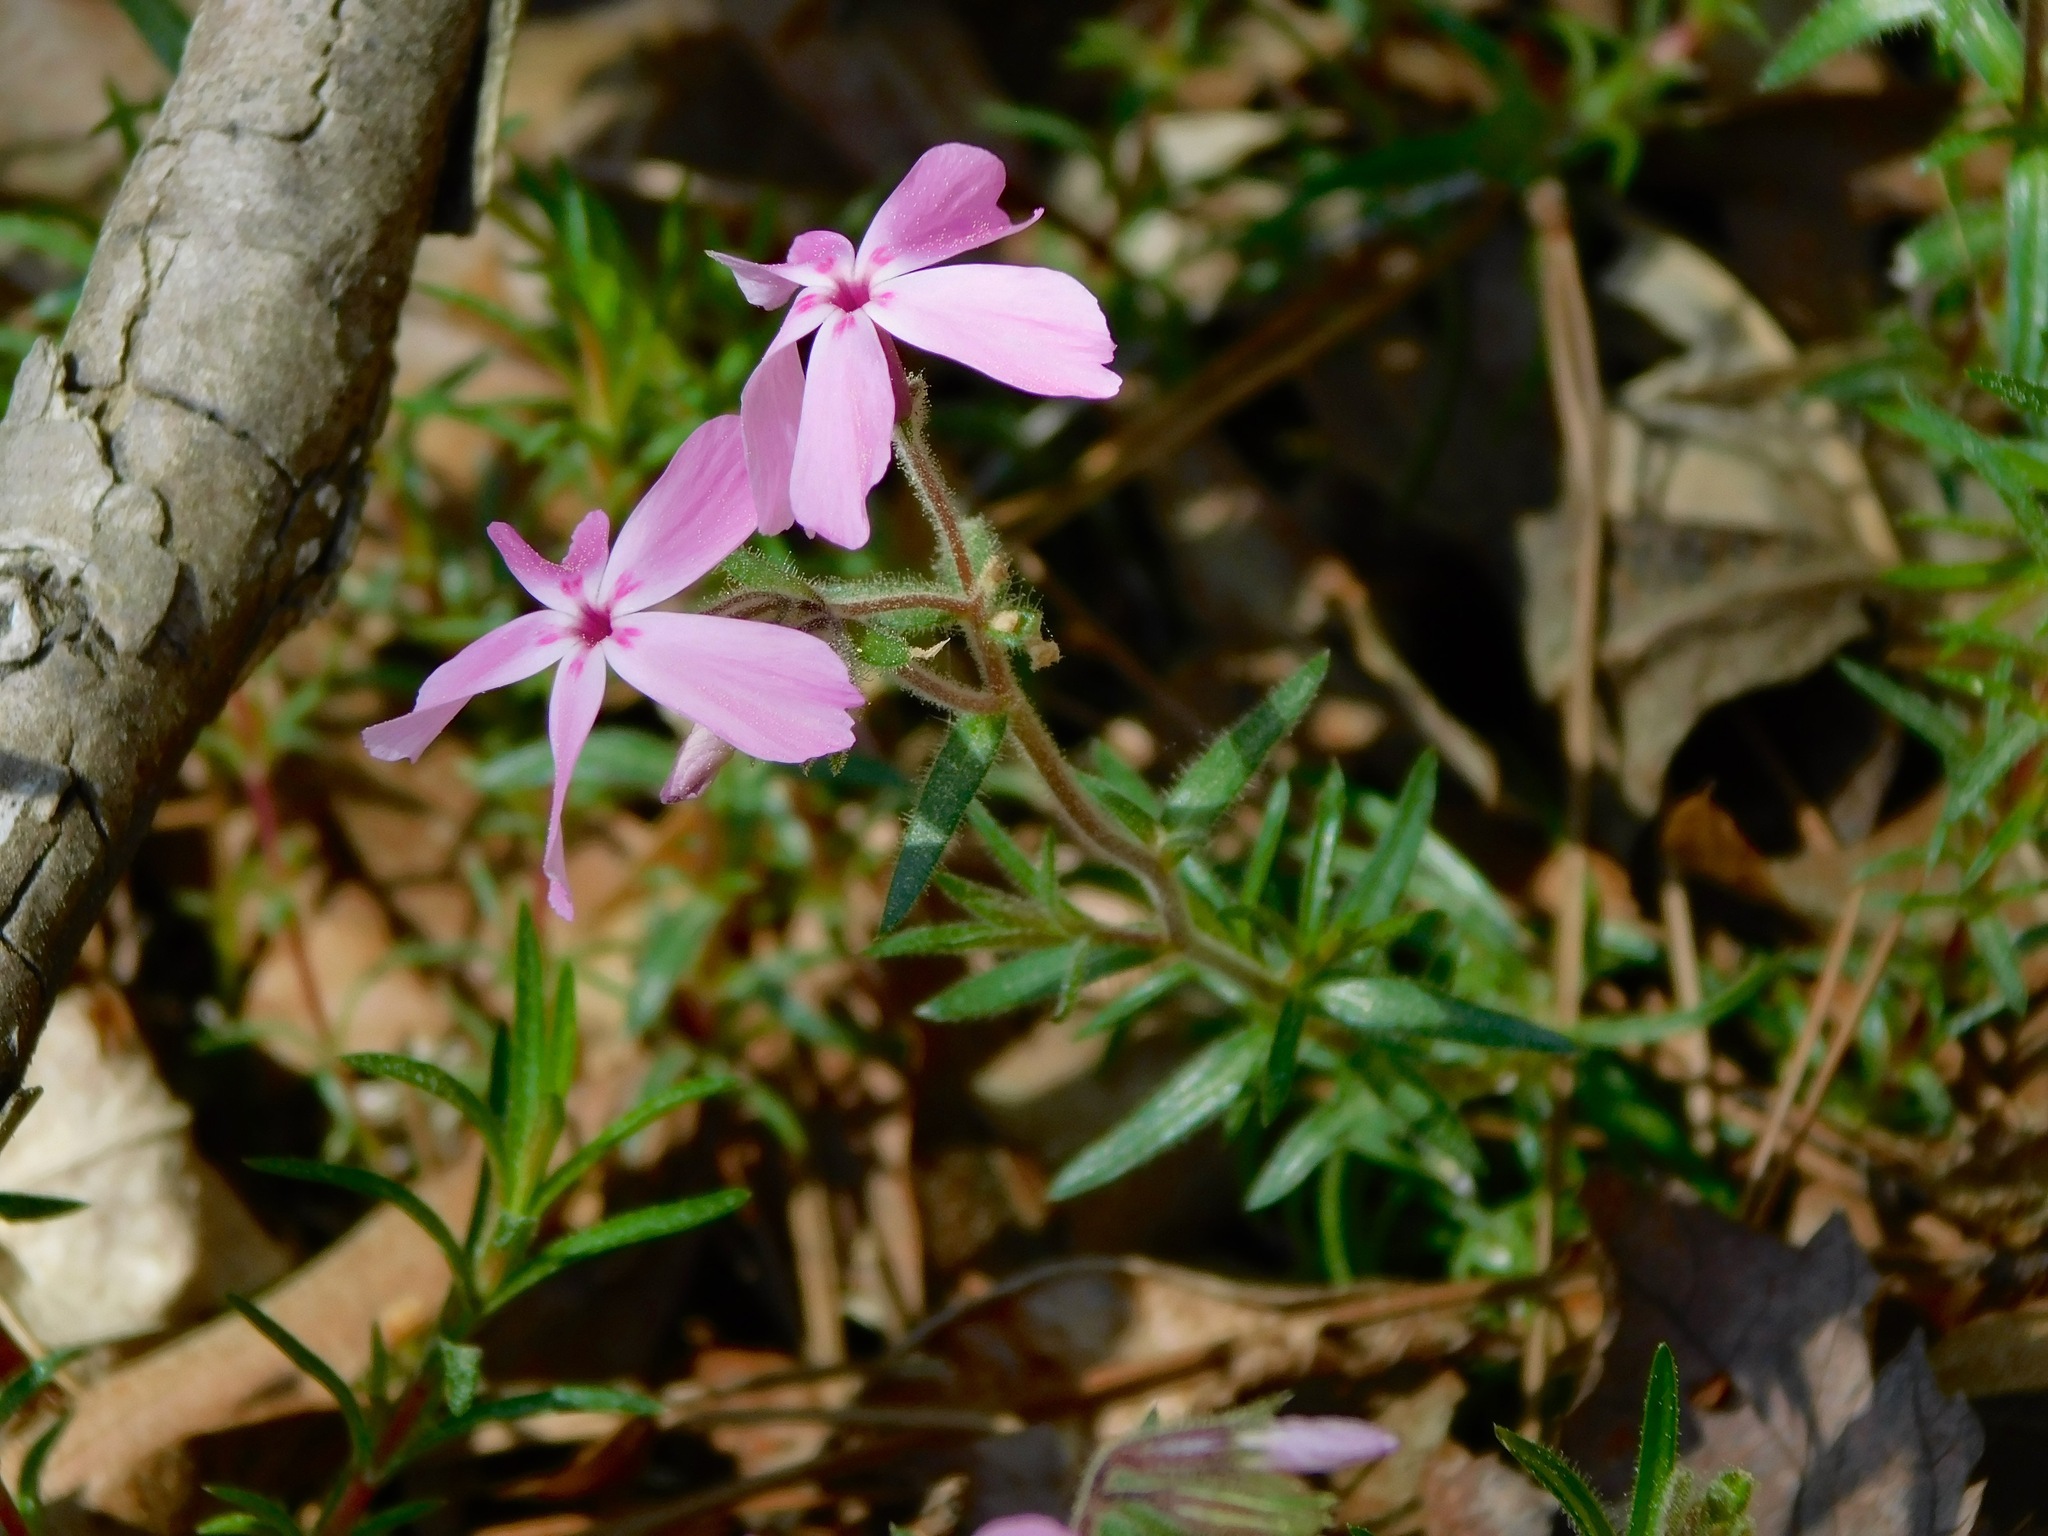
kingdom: Plantae
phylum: Tracheophyta
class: Magnoliopsida
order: Ericales
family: Polemoniaceae
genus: Phlox
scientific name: Phlox nivalis
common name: Trailing phlox
